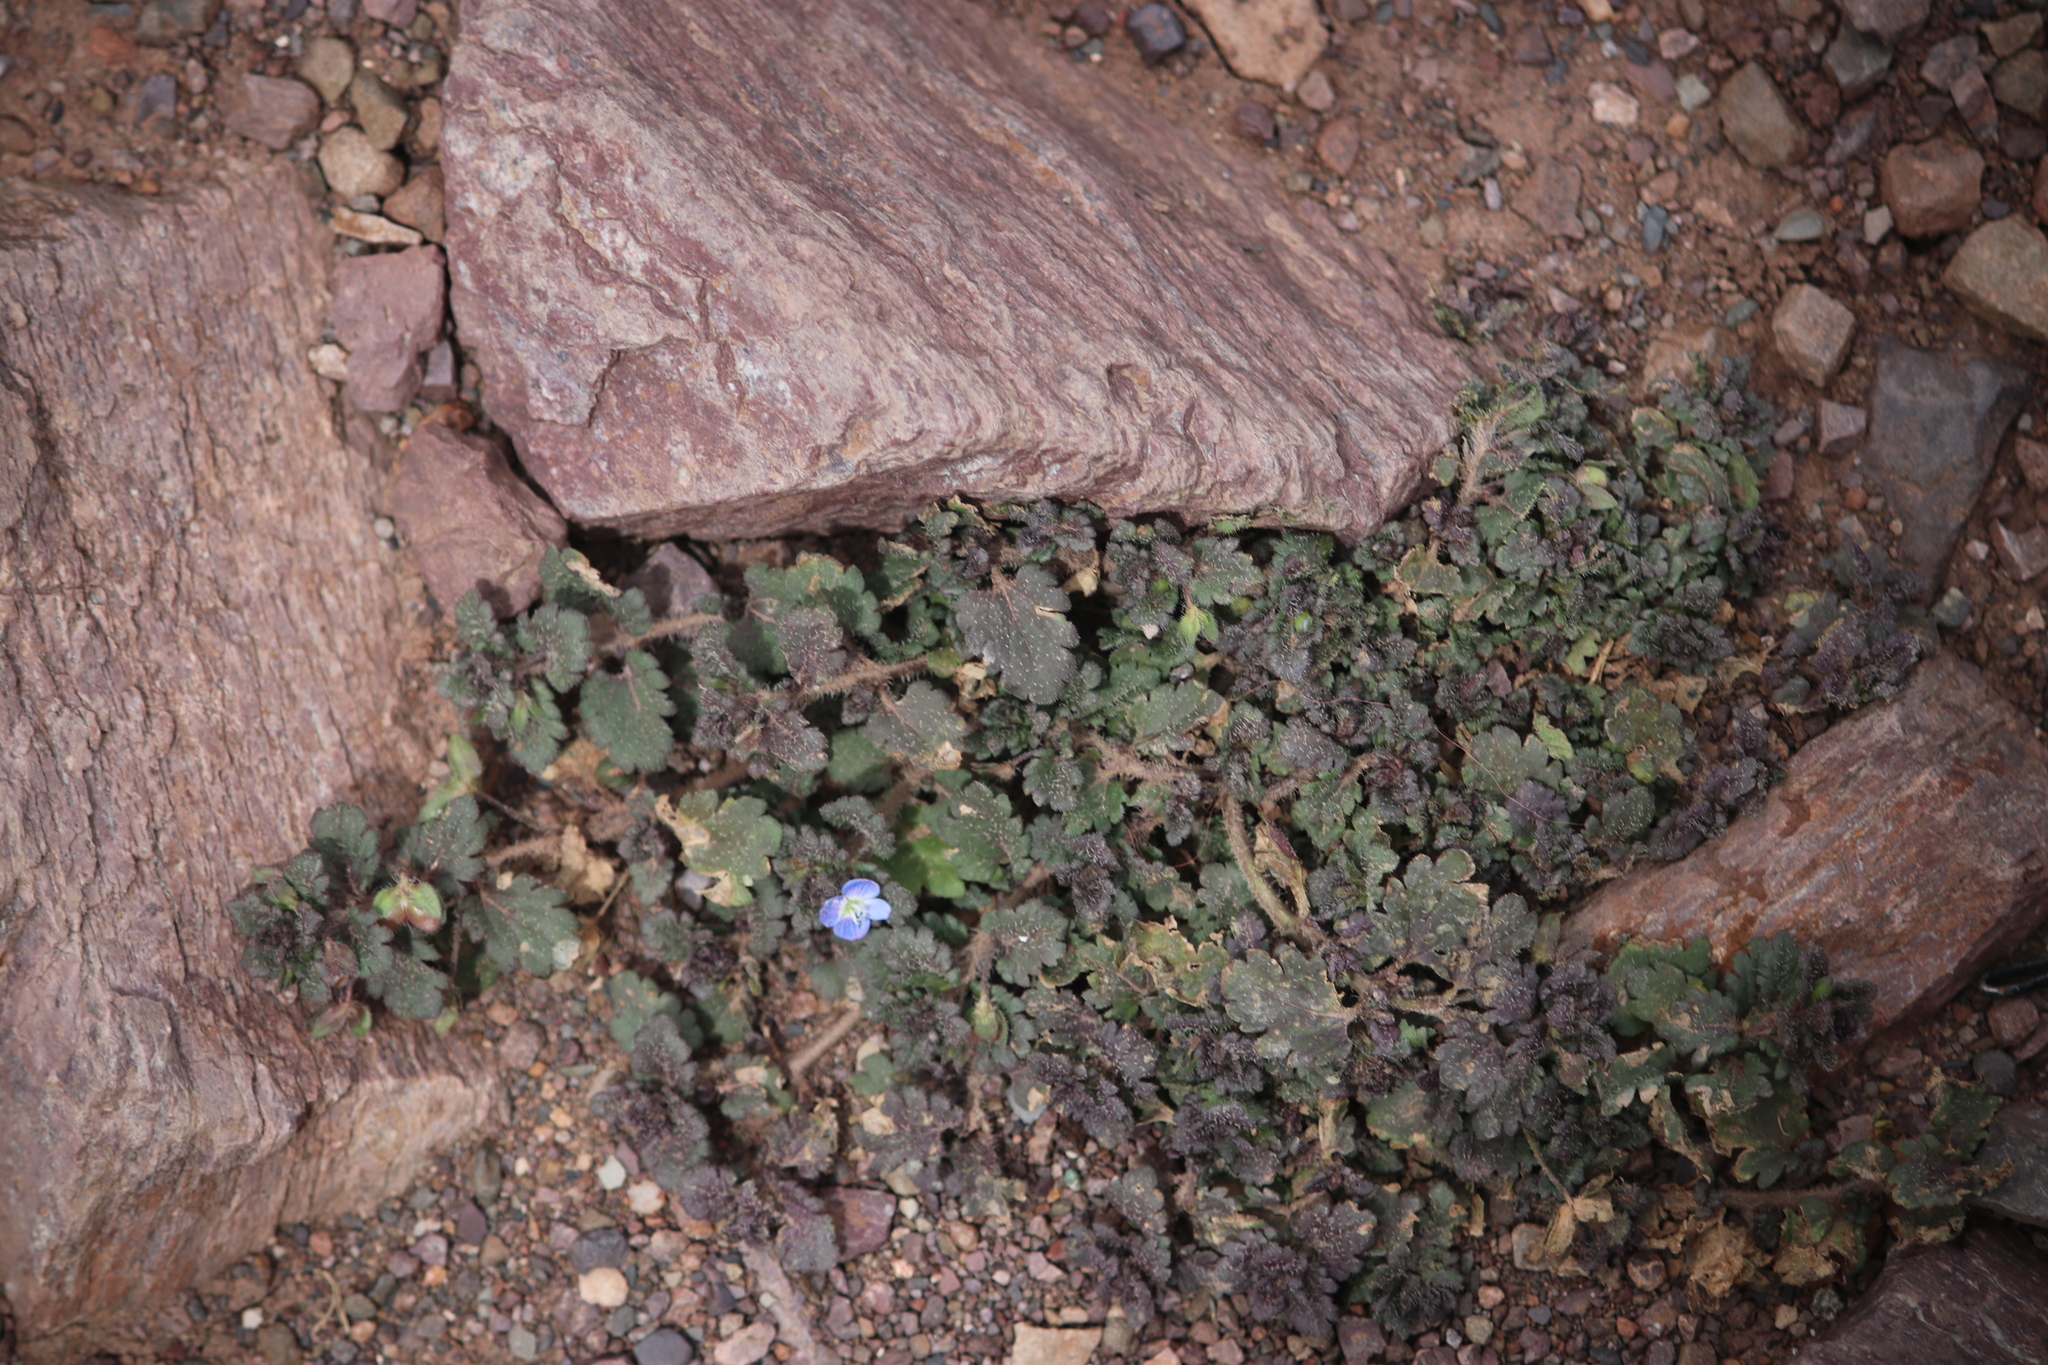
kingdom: Plantae
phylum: Tracheophyta
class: Magnoliopsida
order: Lamiales
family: Plantaginaceae
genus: Veronica
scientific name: Veronica persica
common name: Common field-speedwell
